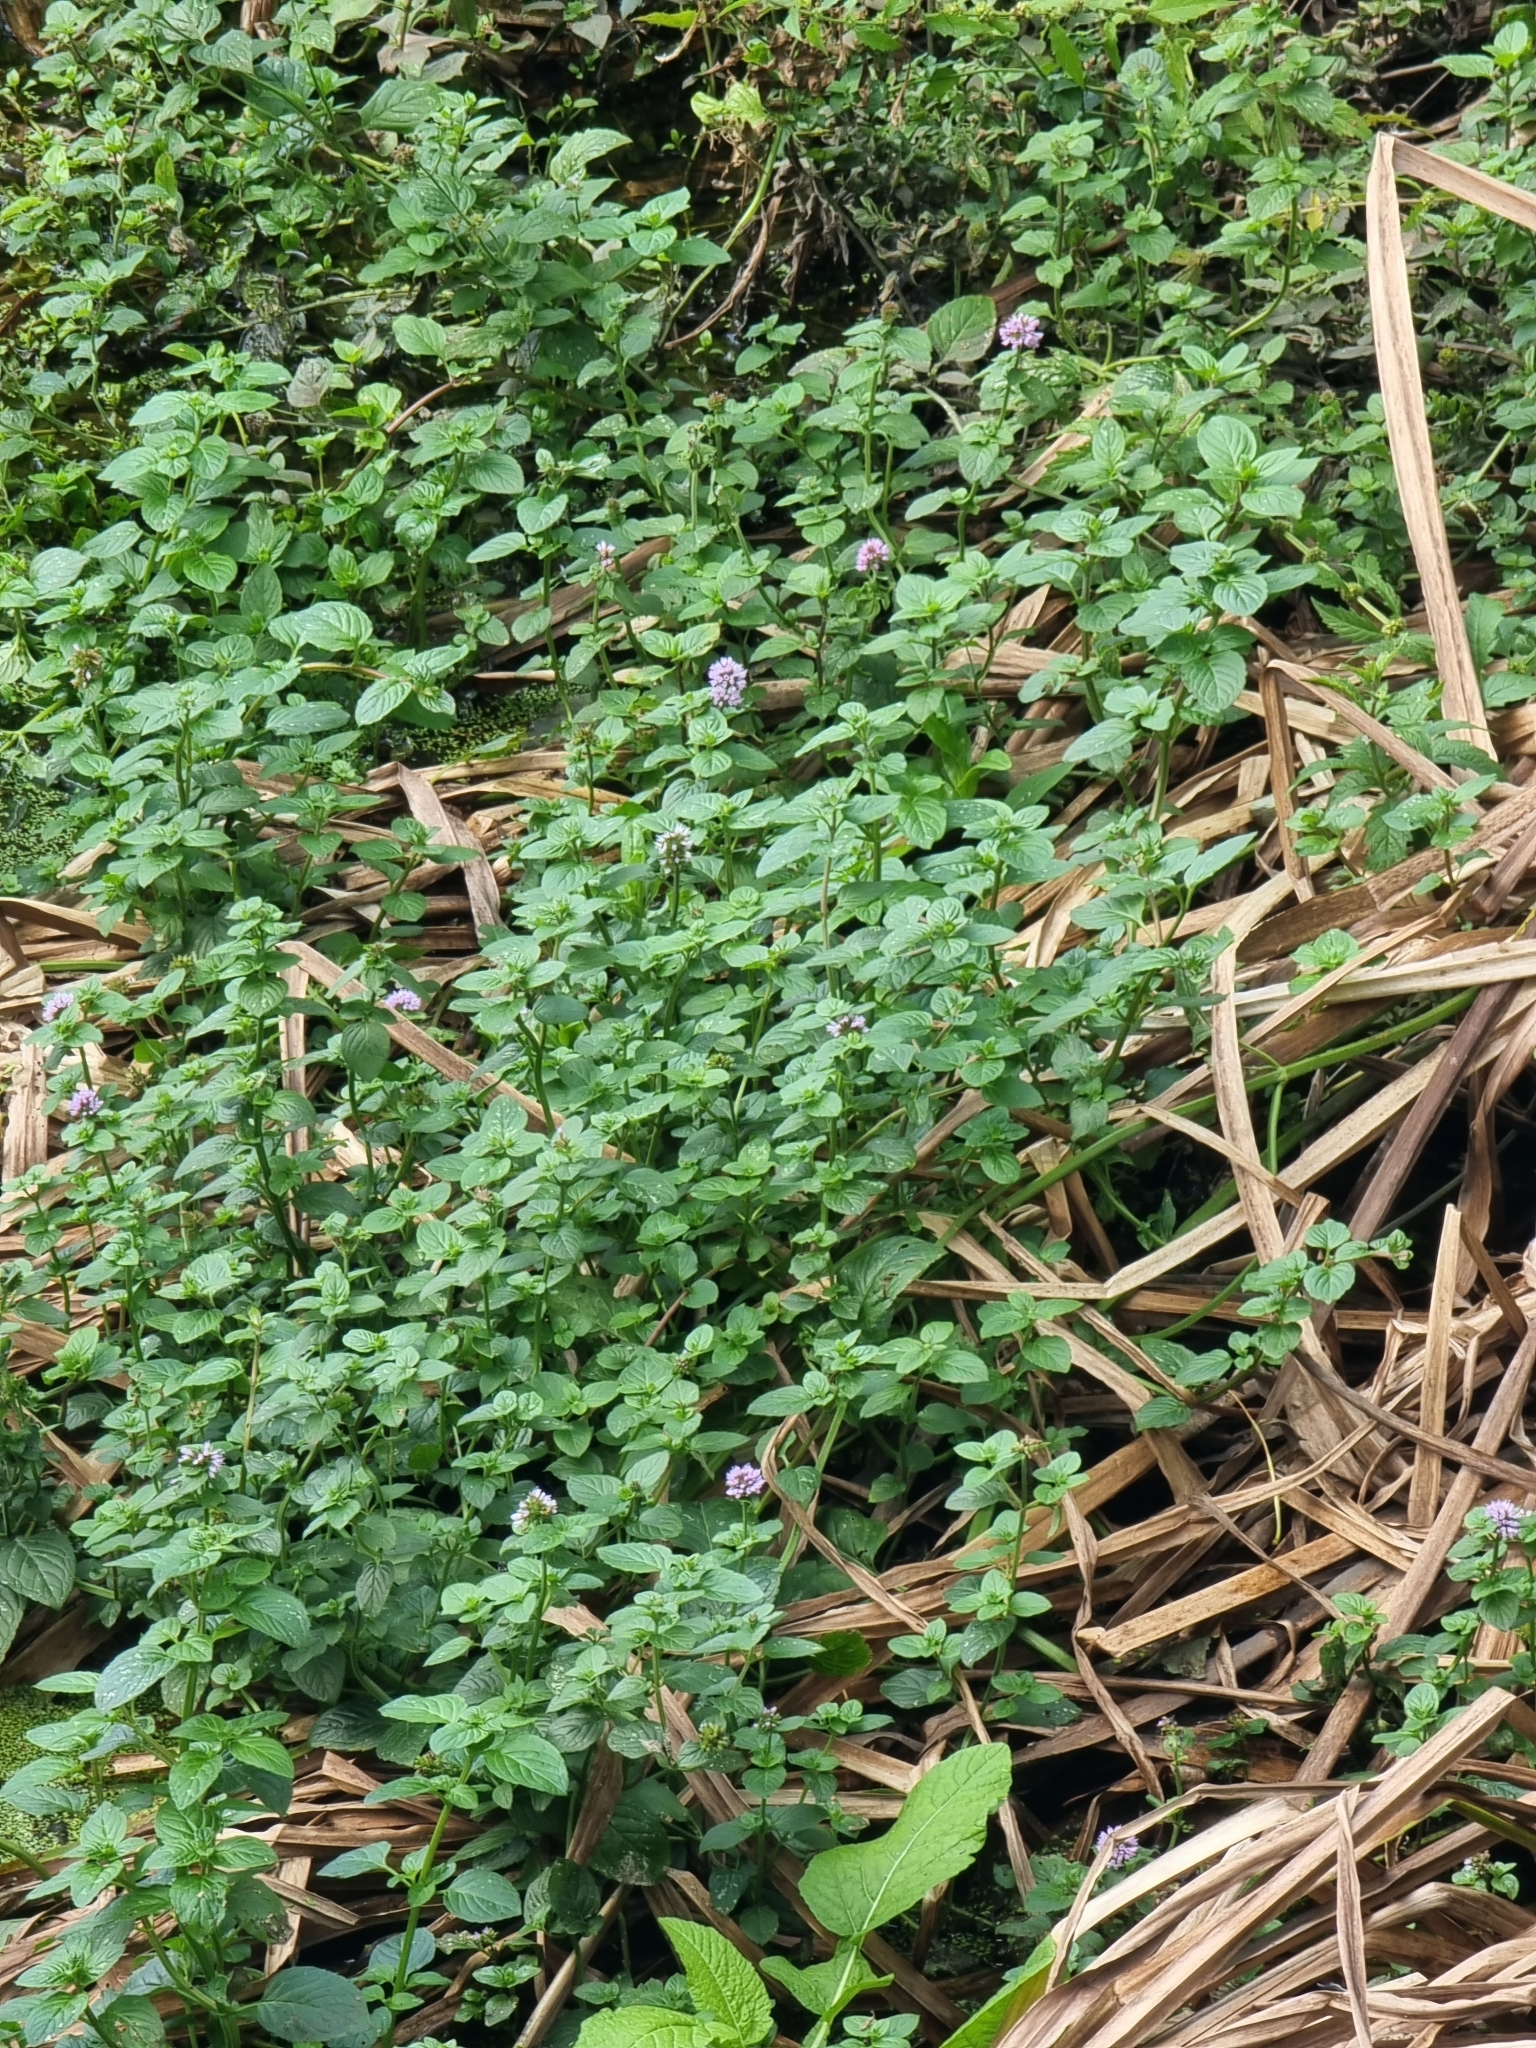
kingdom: Plantae
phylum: Tracheophyta
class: Magnoliopsida
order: Lamiales
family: Lamiaceae
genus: Mentha
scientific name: Mentha aquatica
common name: Water mint
